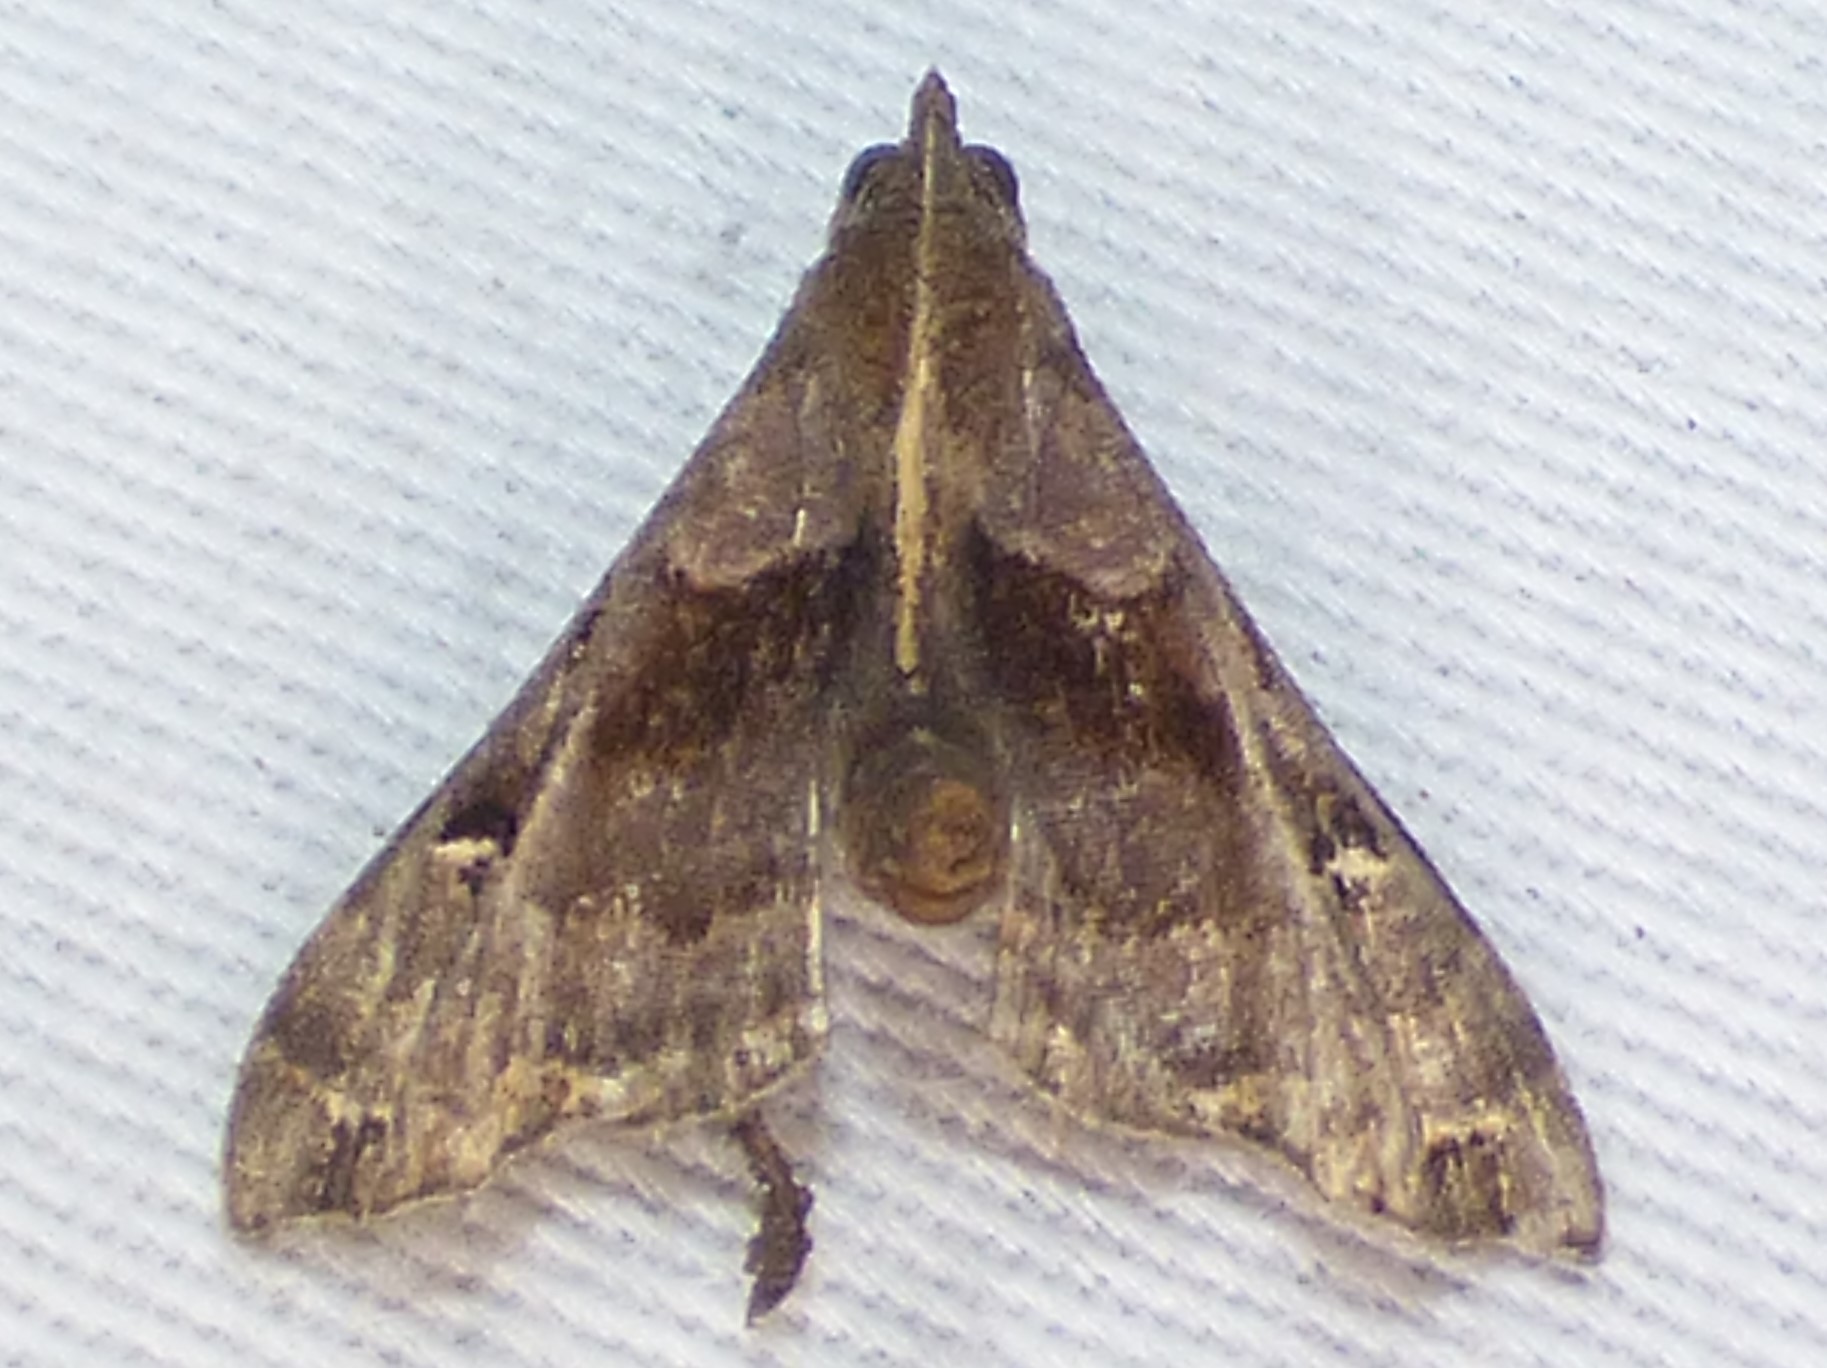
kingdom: Animalia
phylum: Arthropoda
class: Insecta
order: Lepidoptera
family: Erebidae
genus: Palthis
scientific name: Palthis asopialis
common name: Faint-spotted palthis moth
